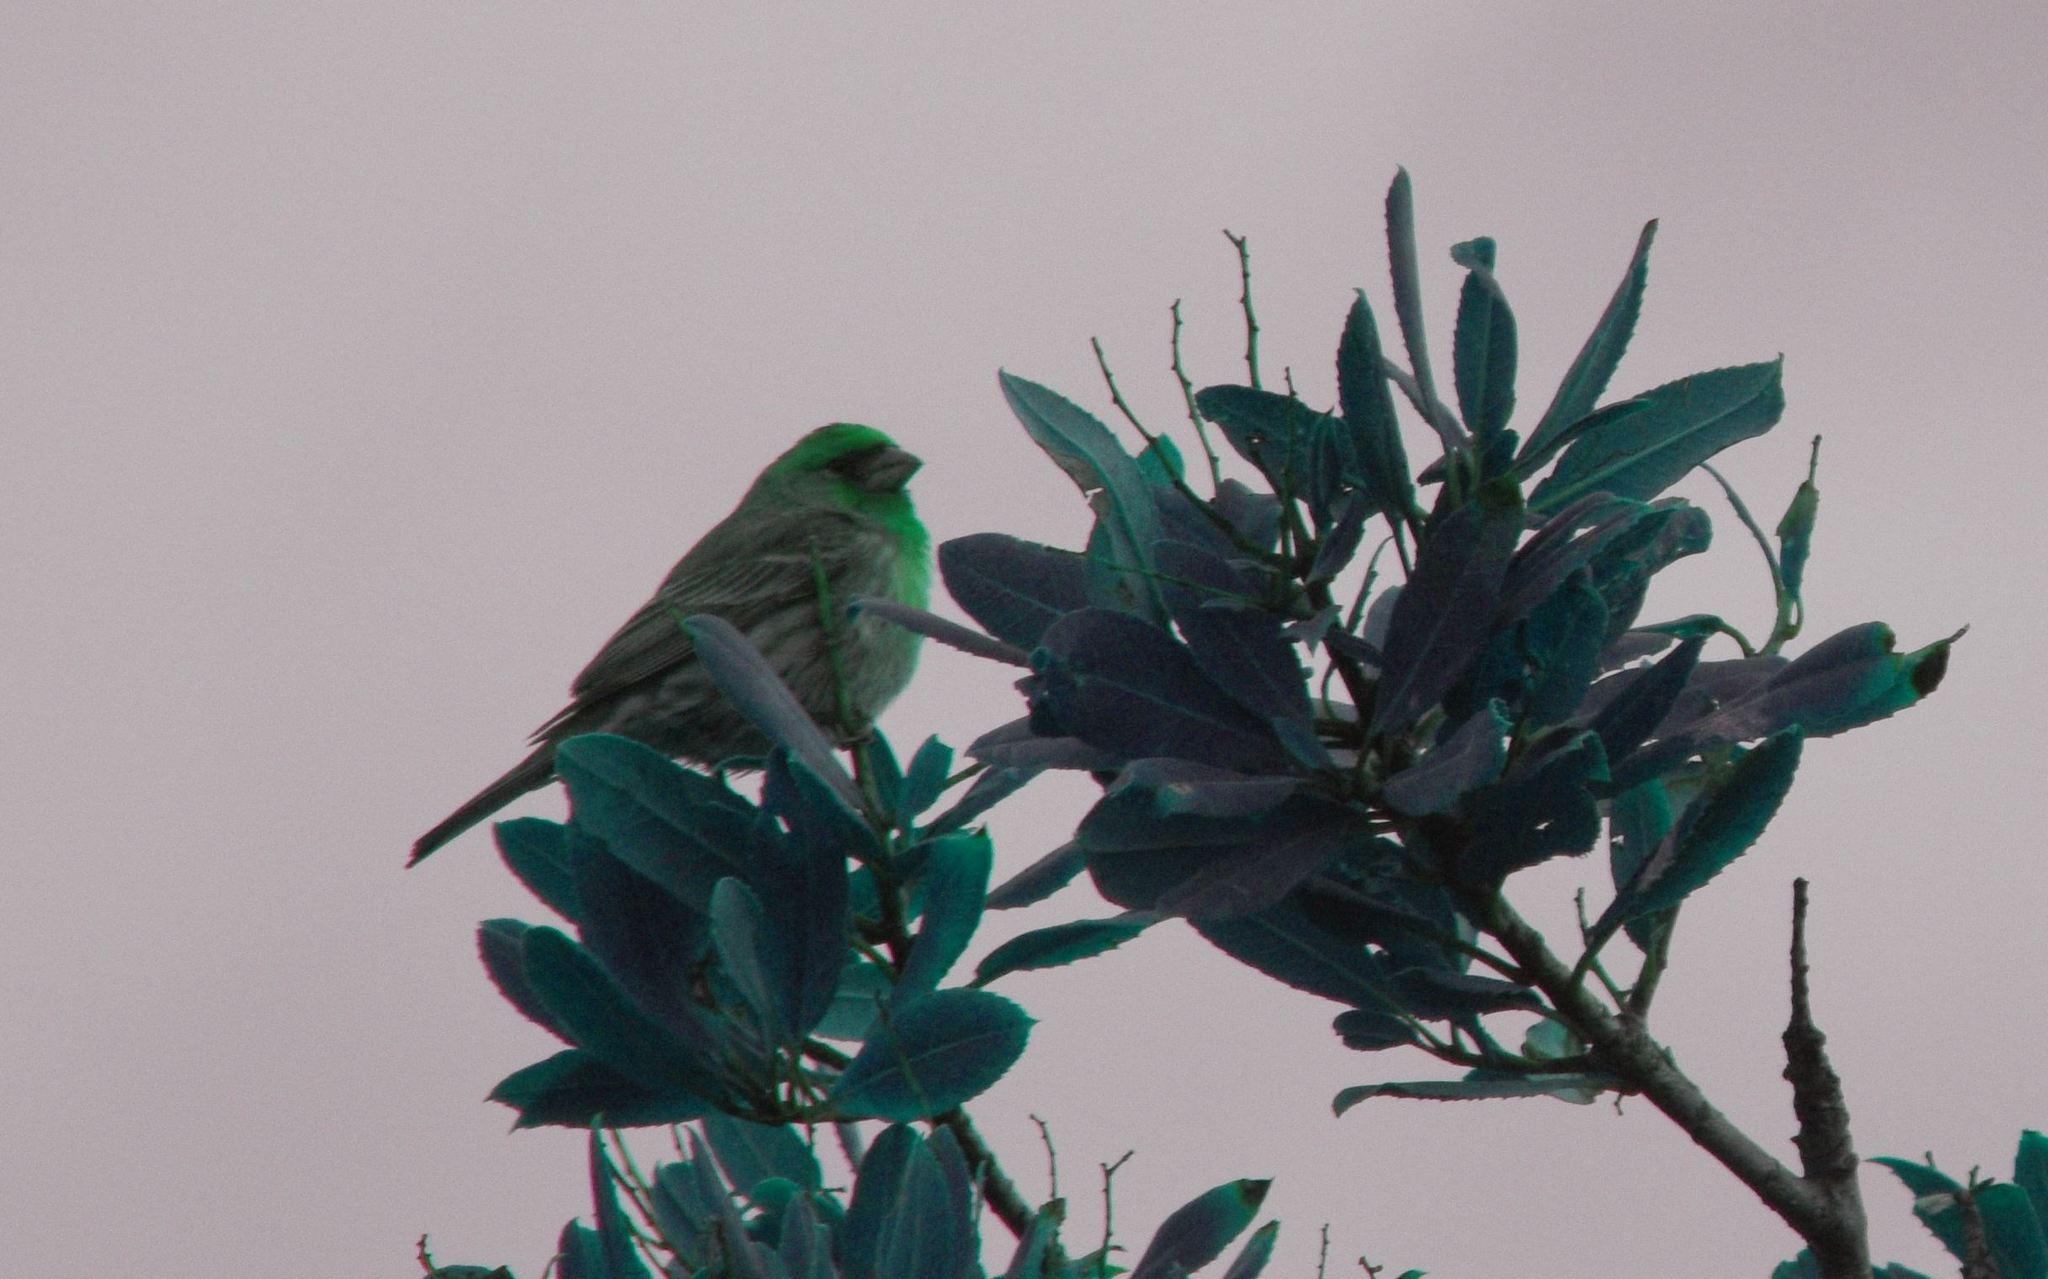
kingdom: Animalia
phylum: Chordata
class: Aves
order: Passeriformes
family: Fringillidae
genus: Haemorhous
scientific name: Haemorhous mexicanus
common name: House finch
